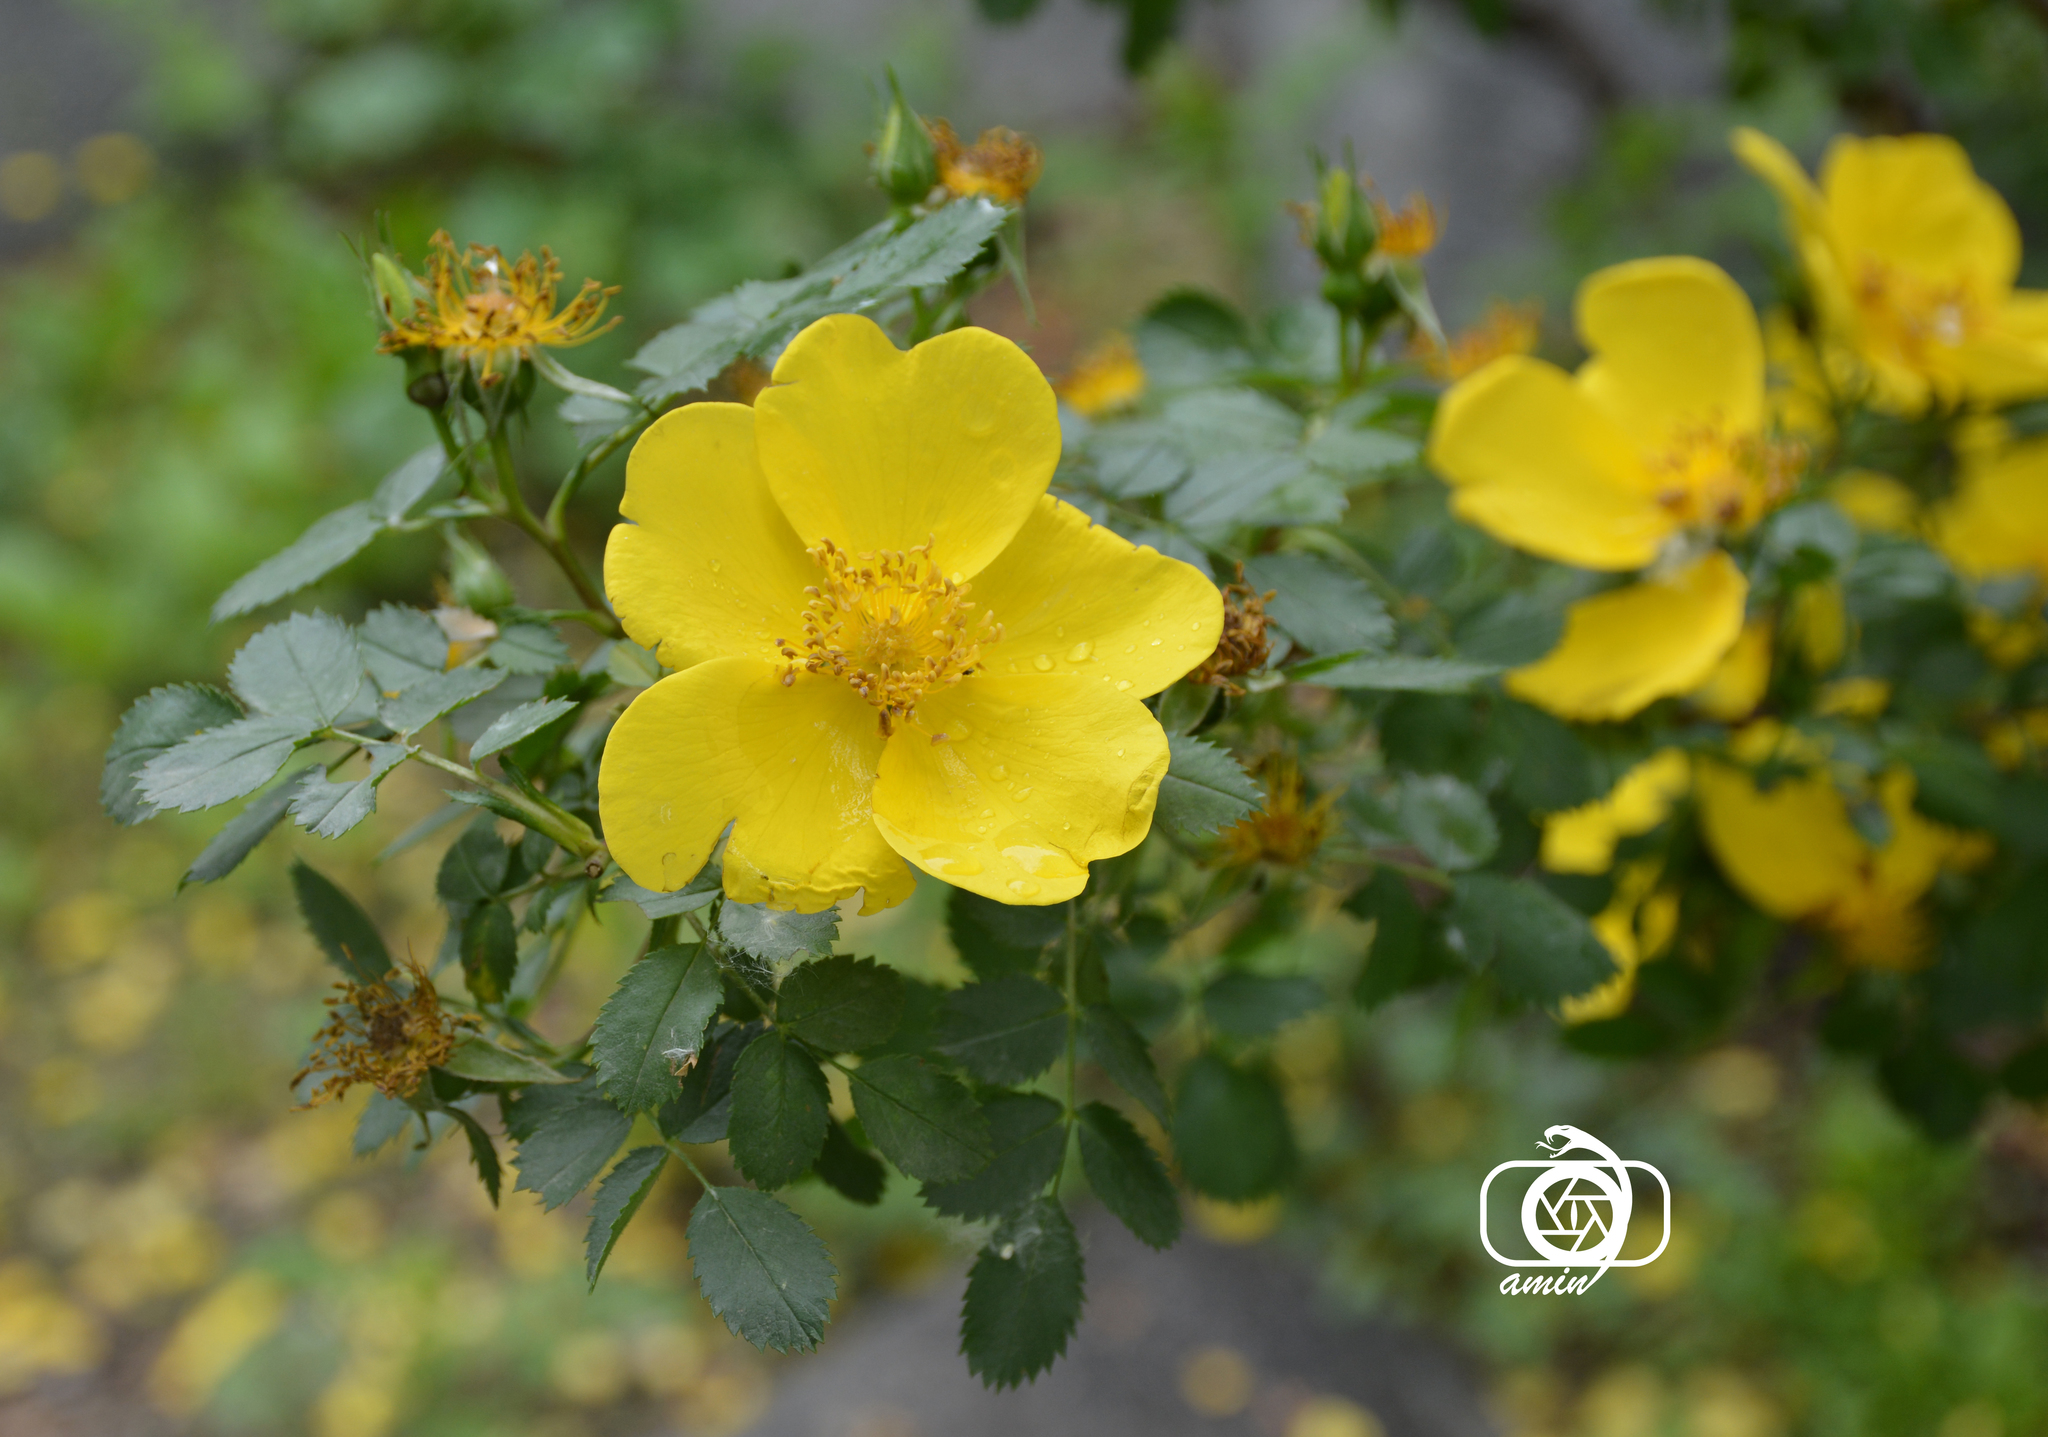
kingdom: Plantae
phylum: Tracheophyta
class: Magnoliopsida
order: Rosales
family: Rosaceae
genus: Rosa
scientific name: Rosa foetida
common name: Persian yellow rose
